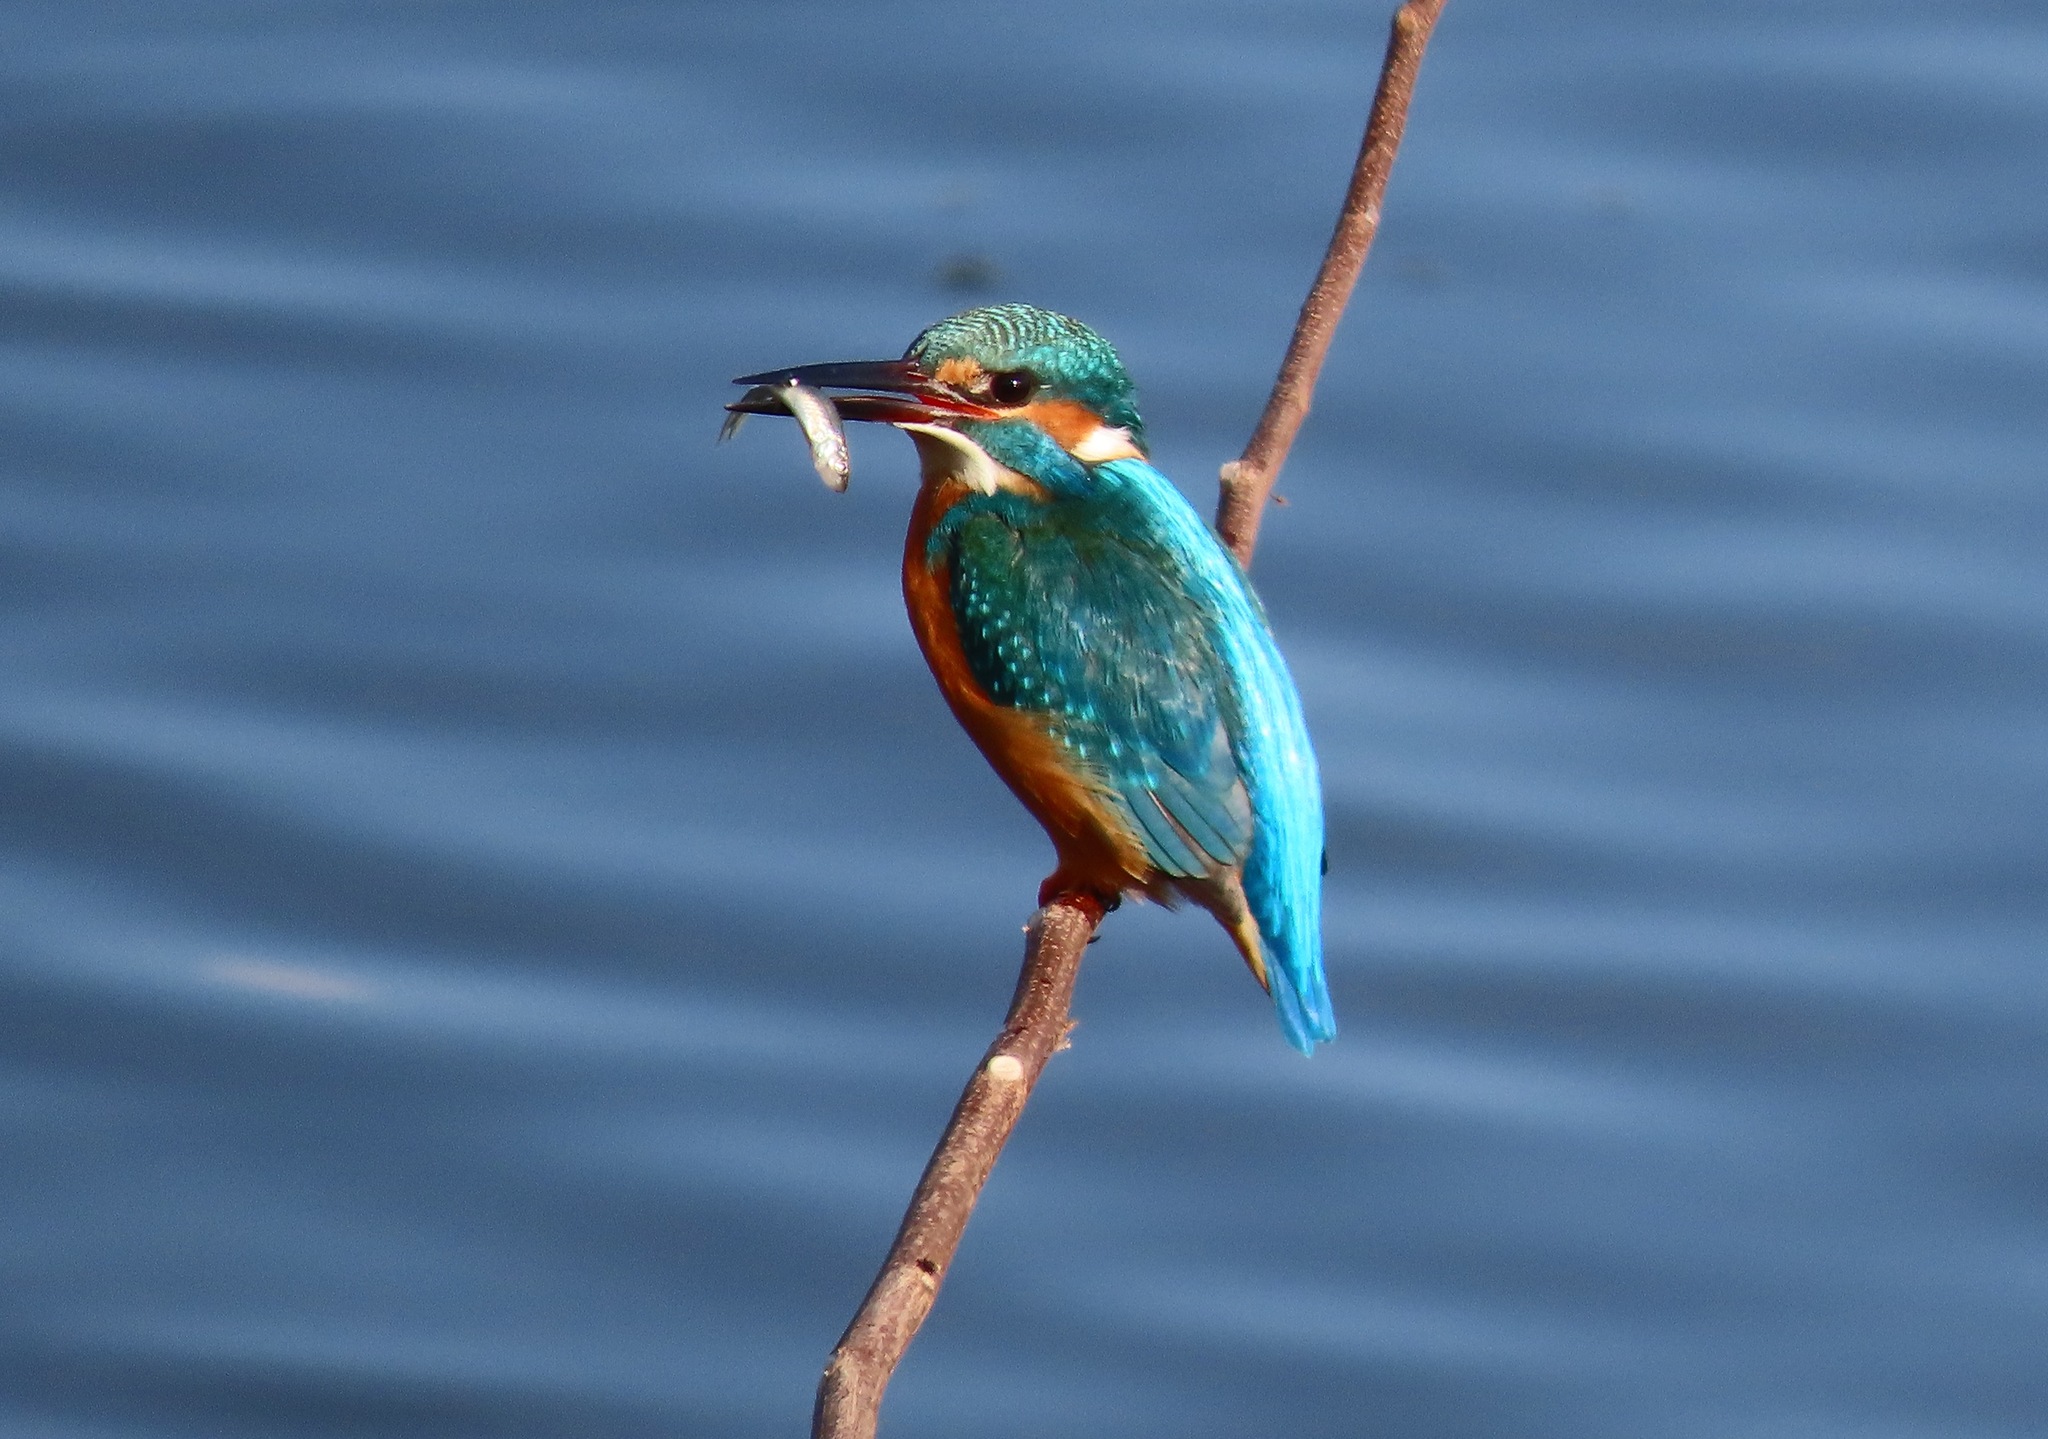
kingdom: Animalia
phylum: Chordata
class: Aves
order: Coraciiformes
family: Alcedinidae
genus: Alcedo
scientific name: Alcedo atthis
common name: Common kingfisher
